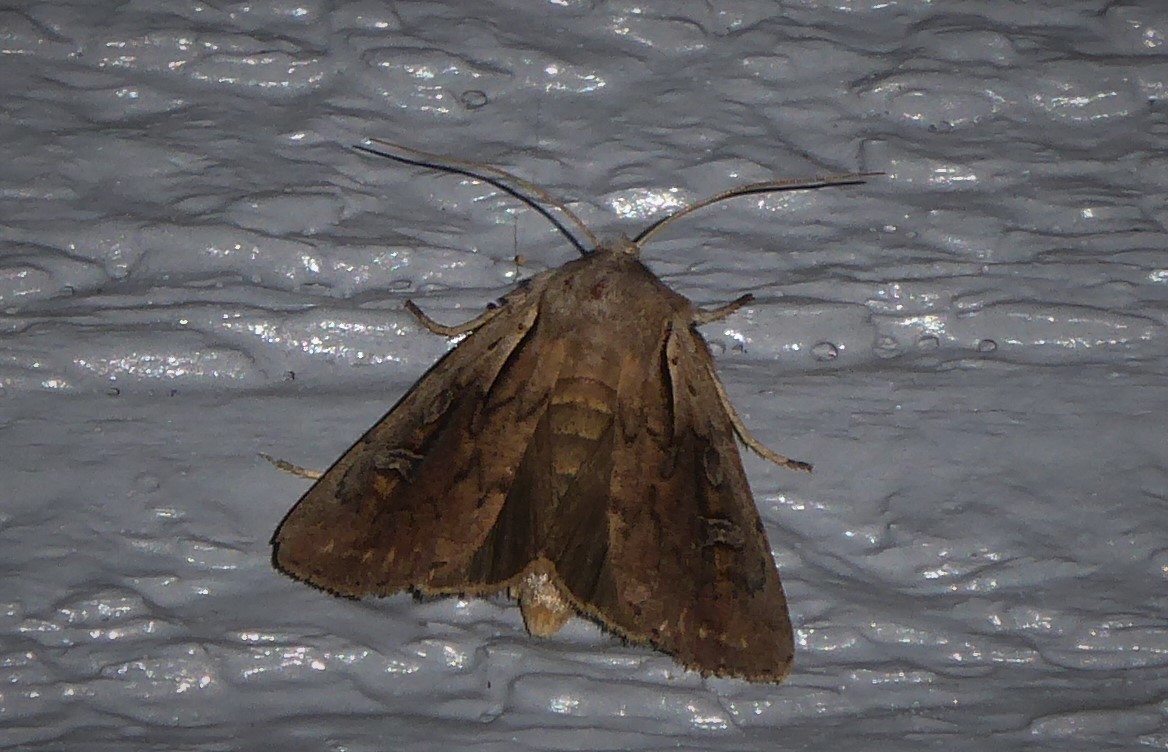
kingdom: Animalia
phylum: Arthropoda
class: Insecta
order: Lepidoptera
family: Noctuidae
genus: Ichneutica
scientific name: Ichneutica atristriga
